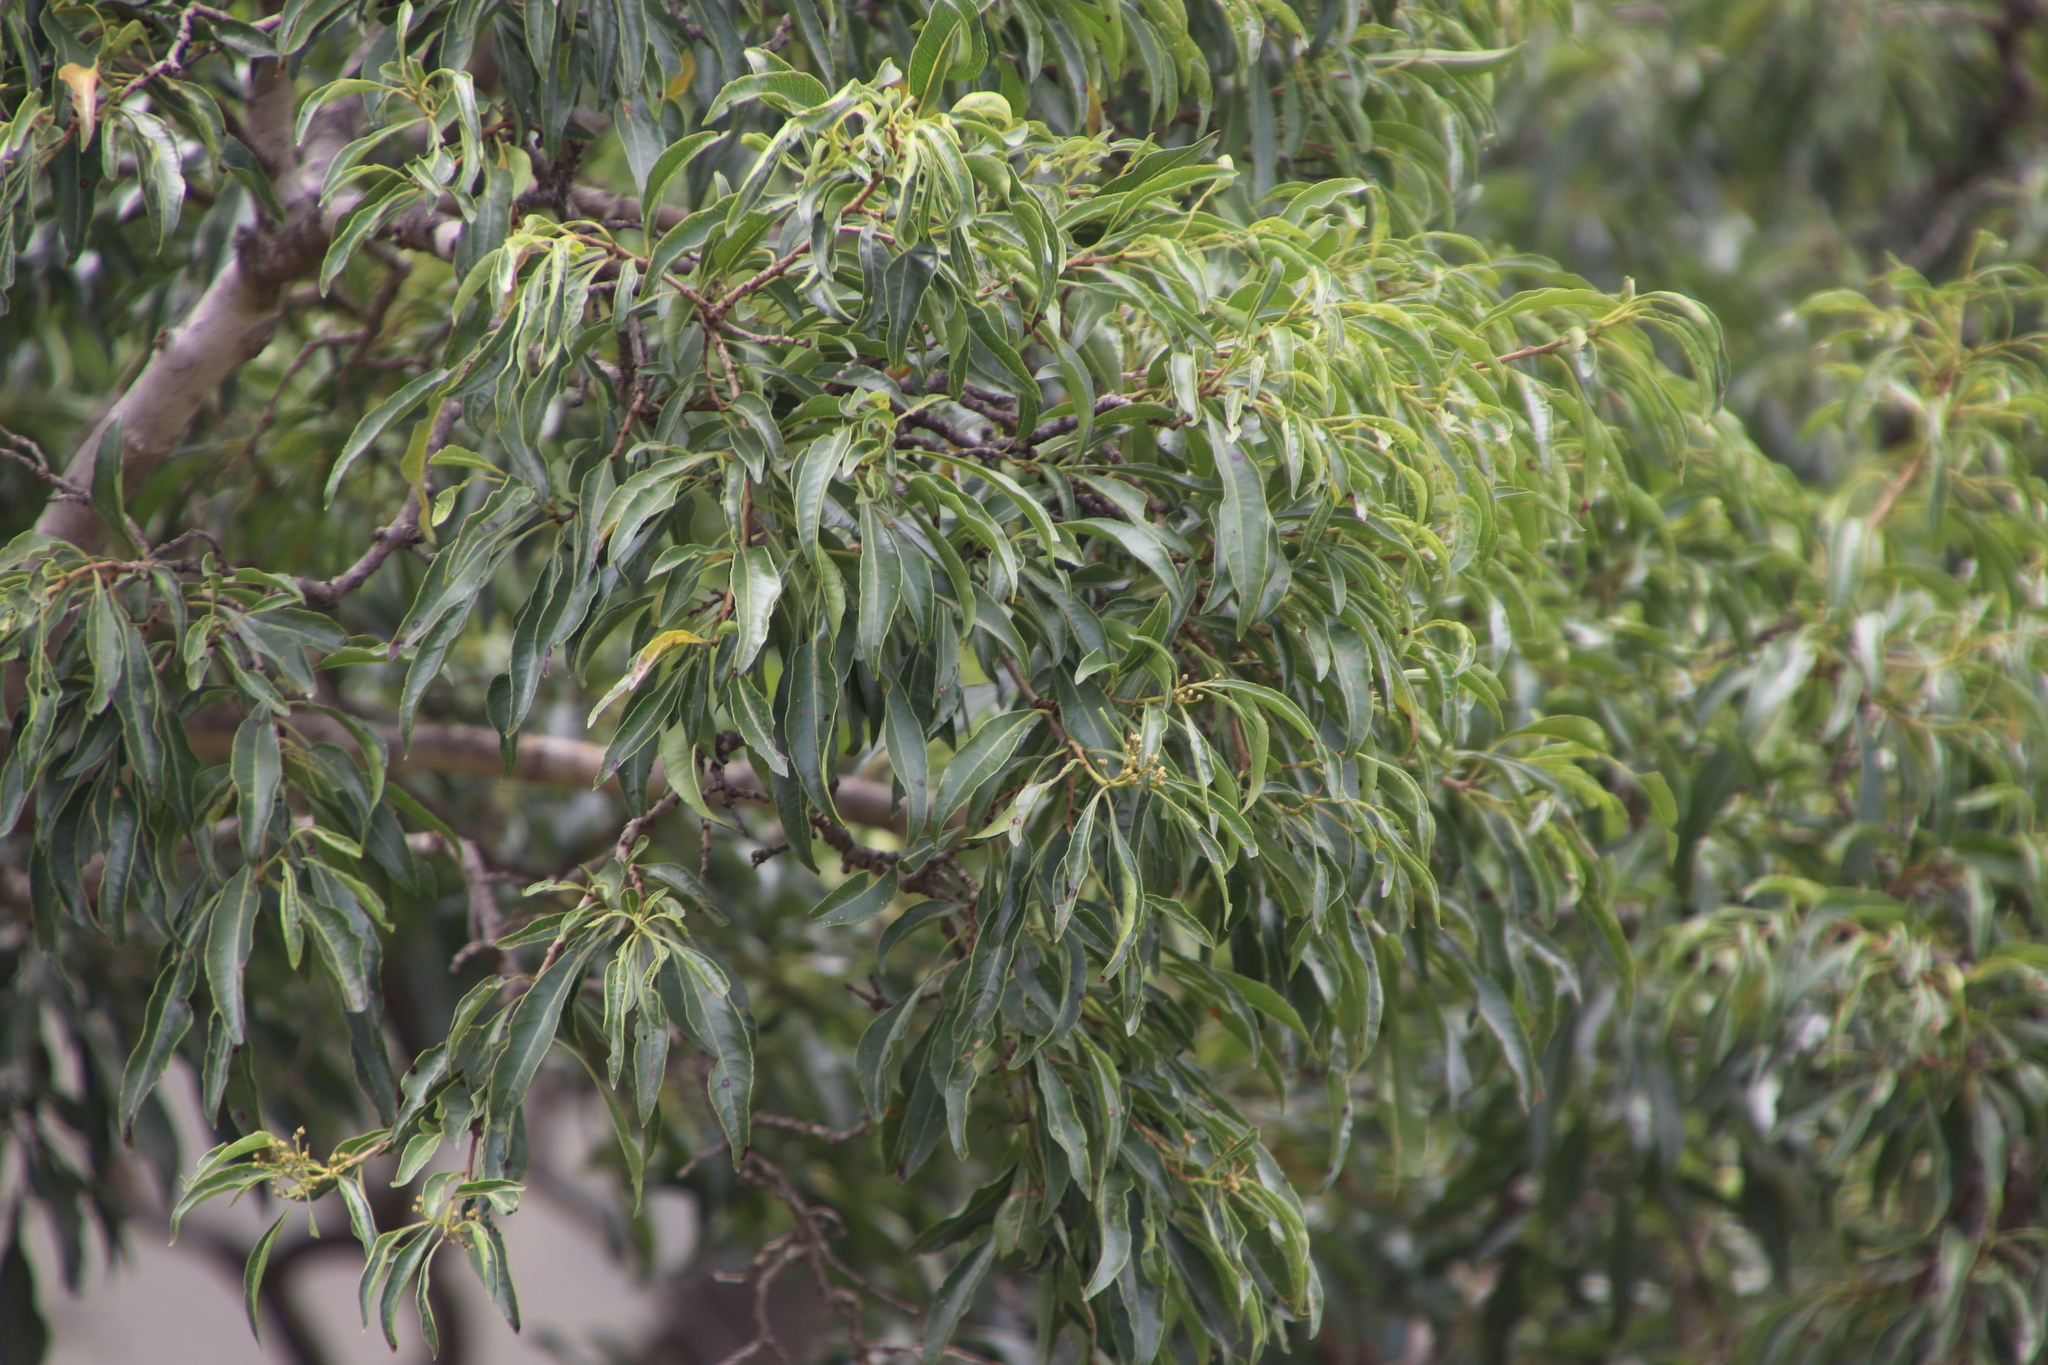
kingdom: Plantae
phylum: Tracheophyta
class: Magnoliopsida
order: Myrtales
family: Myrtaceae
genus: Heteropyxis
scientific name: Heteropyxis natalensis
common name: Lavender tree
